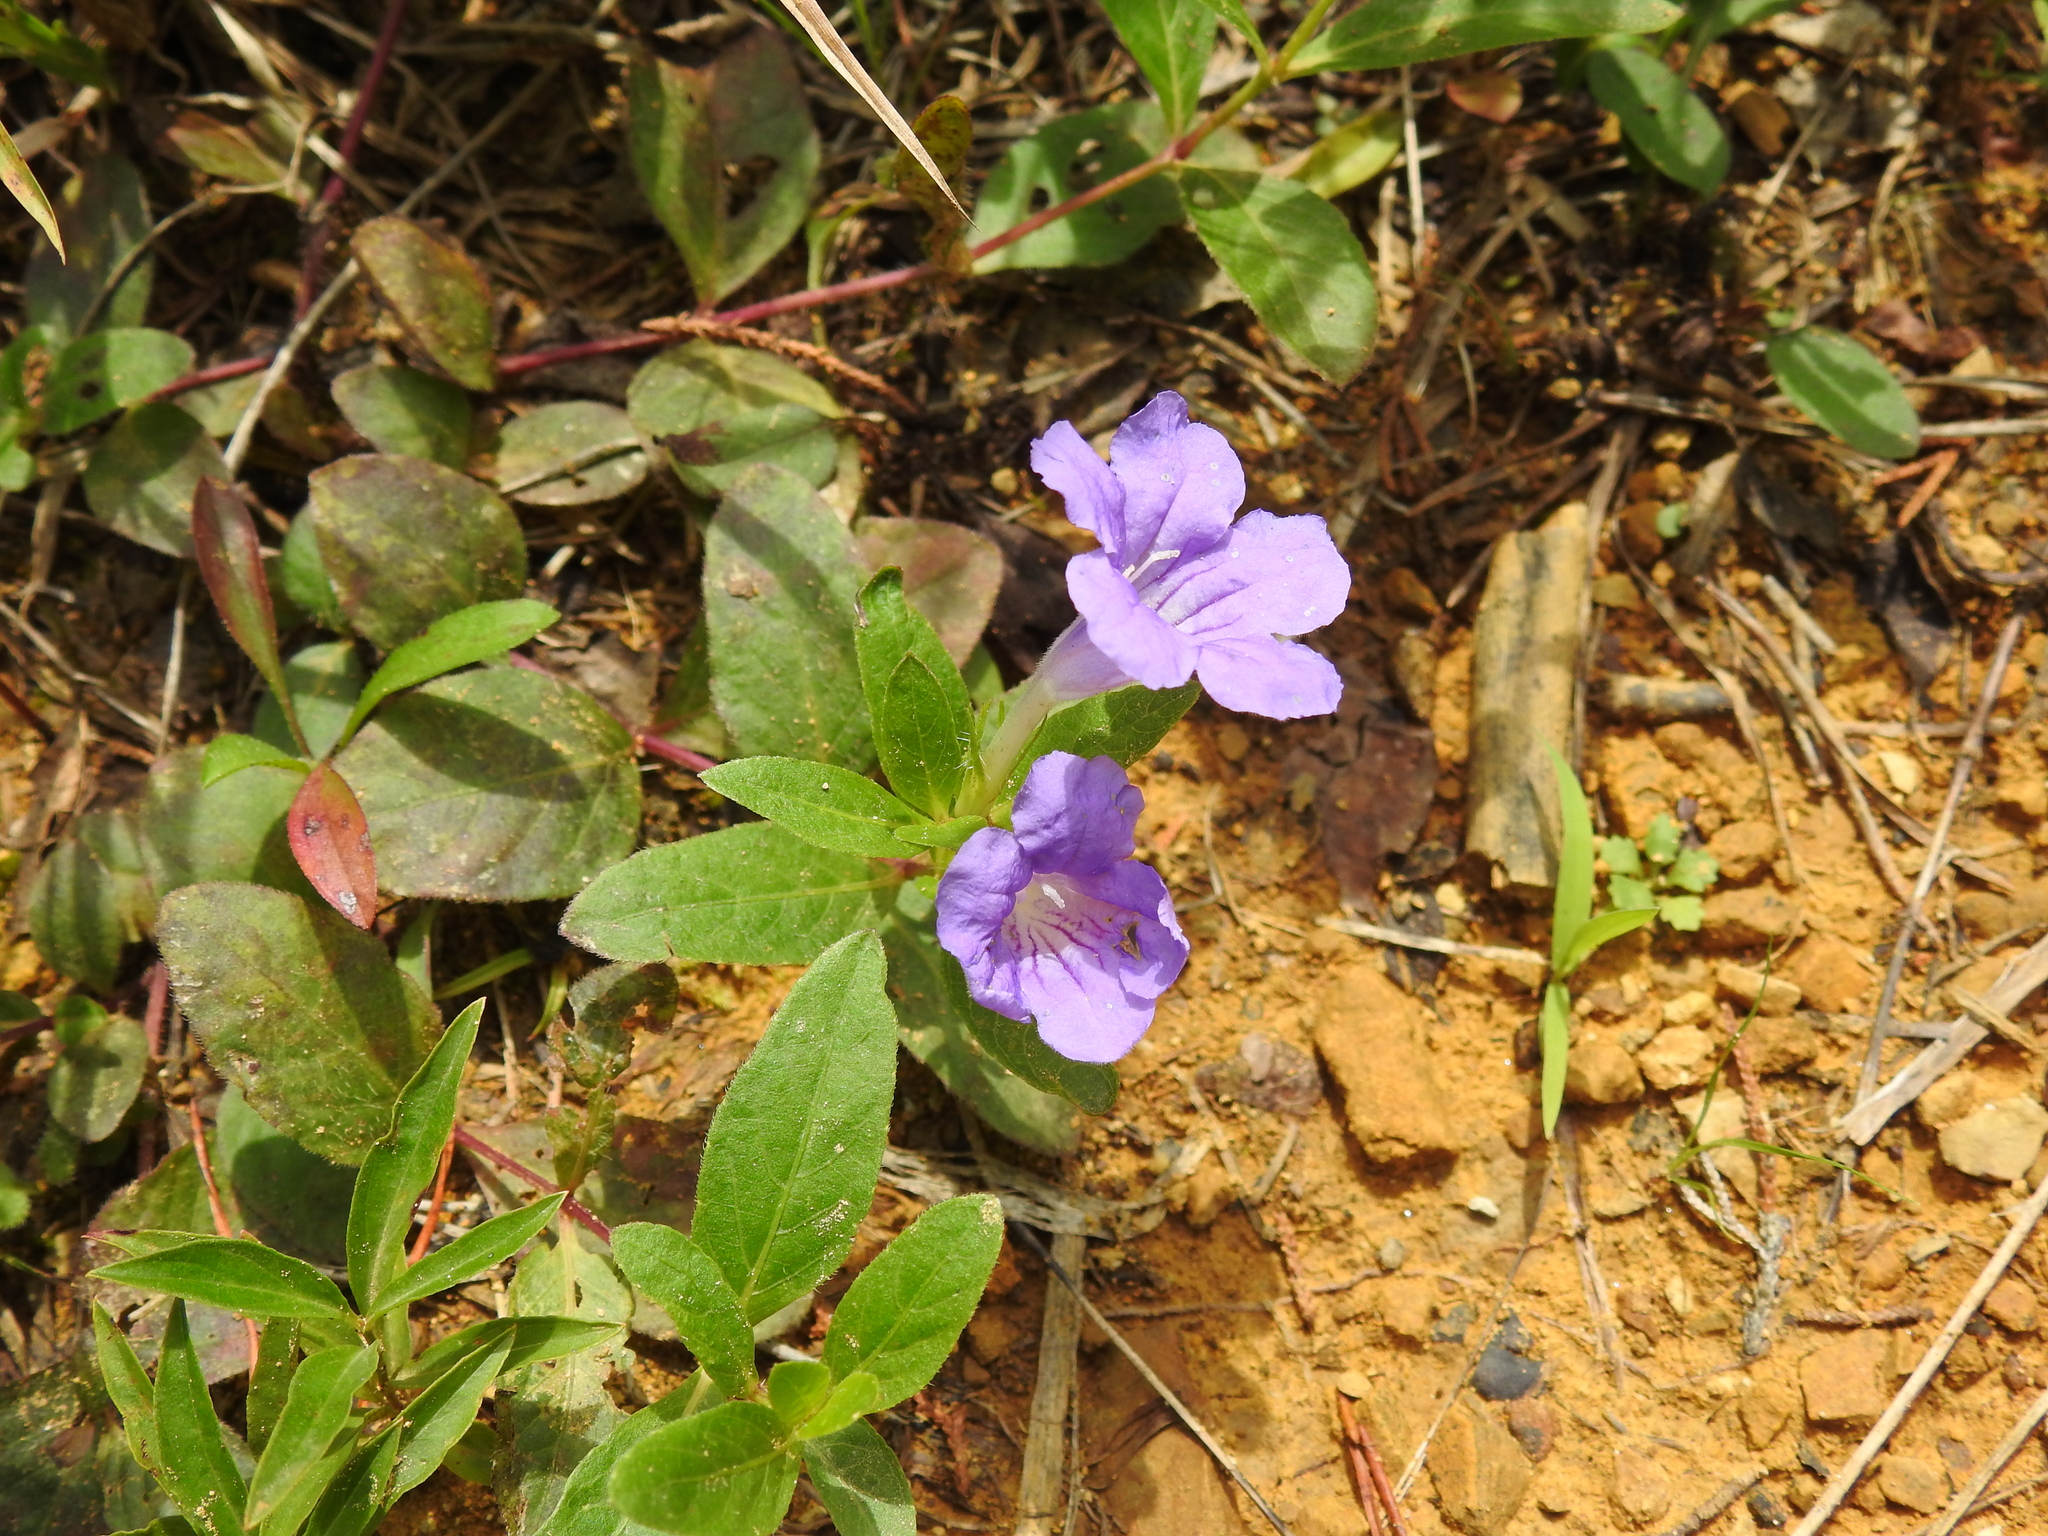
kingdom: Plantae
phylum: Tracheophyta
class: Magnoliopsida
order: Lamiales
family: Acanthaceae
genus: Ruellia
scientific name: Ruellia humilis
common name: Fringe-leaf ruellia
